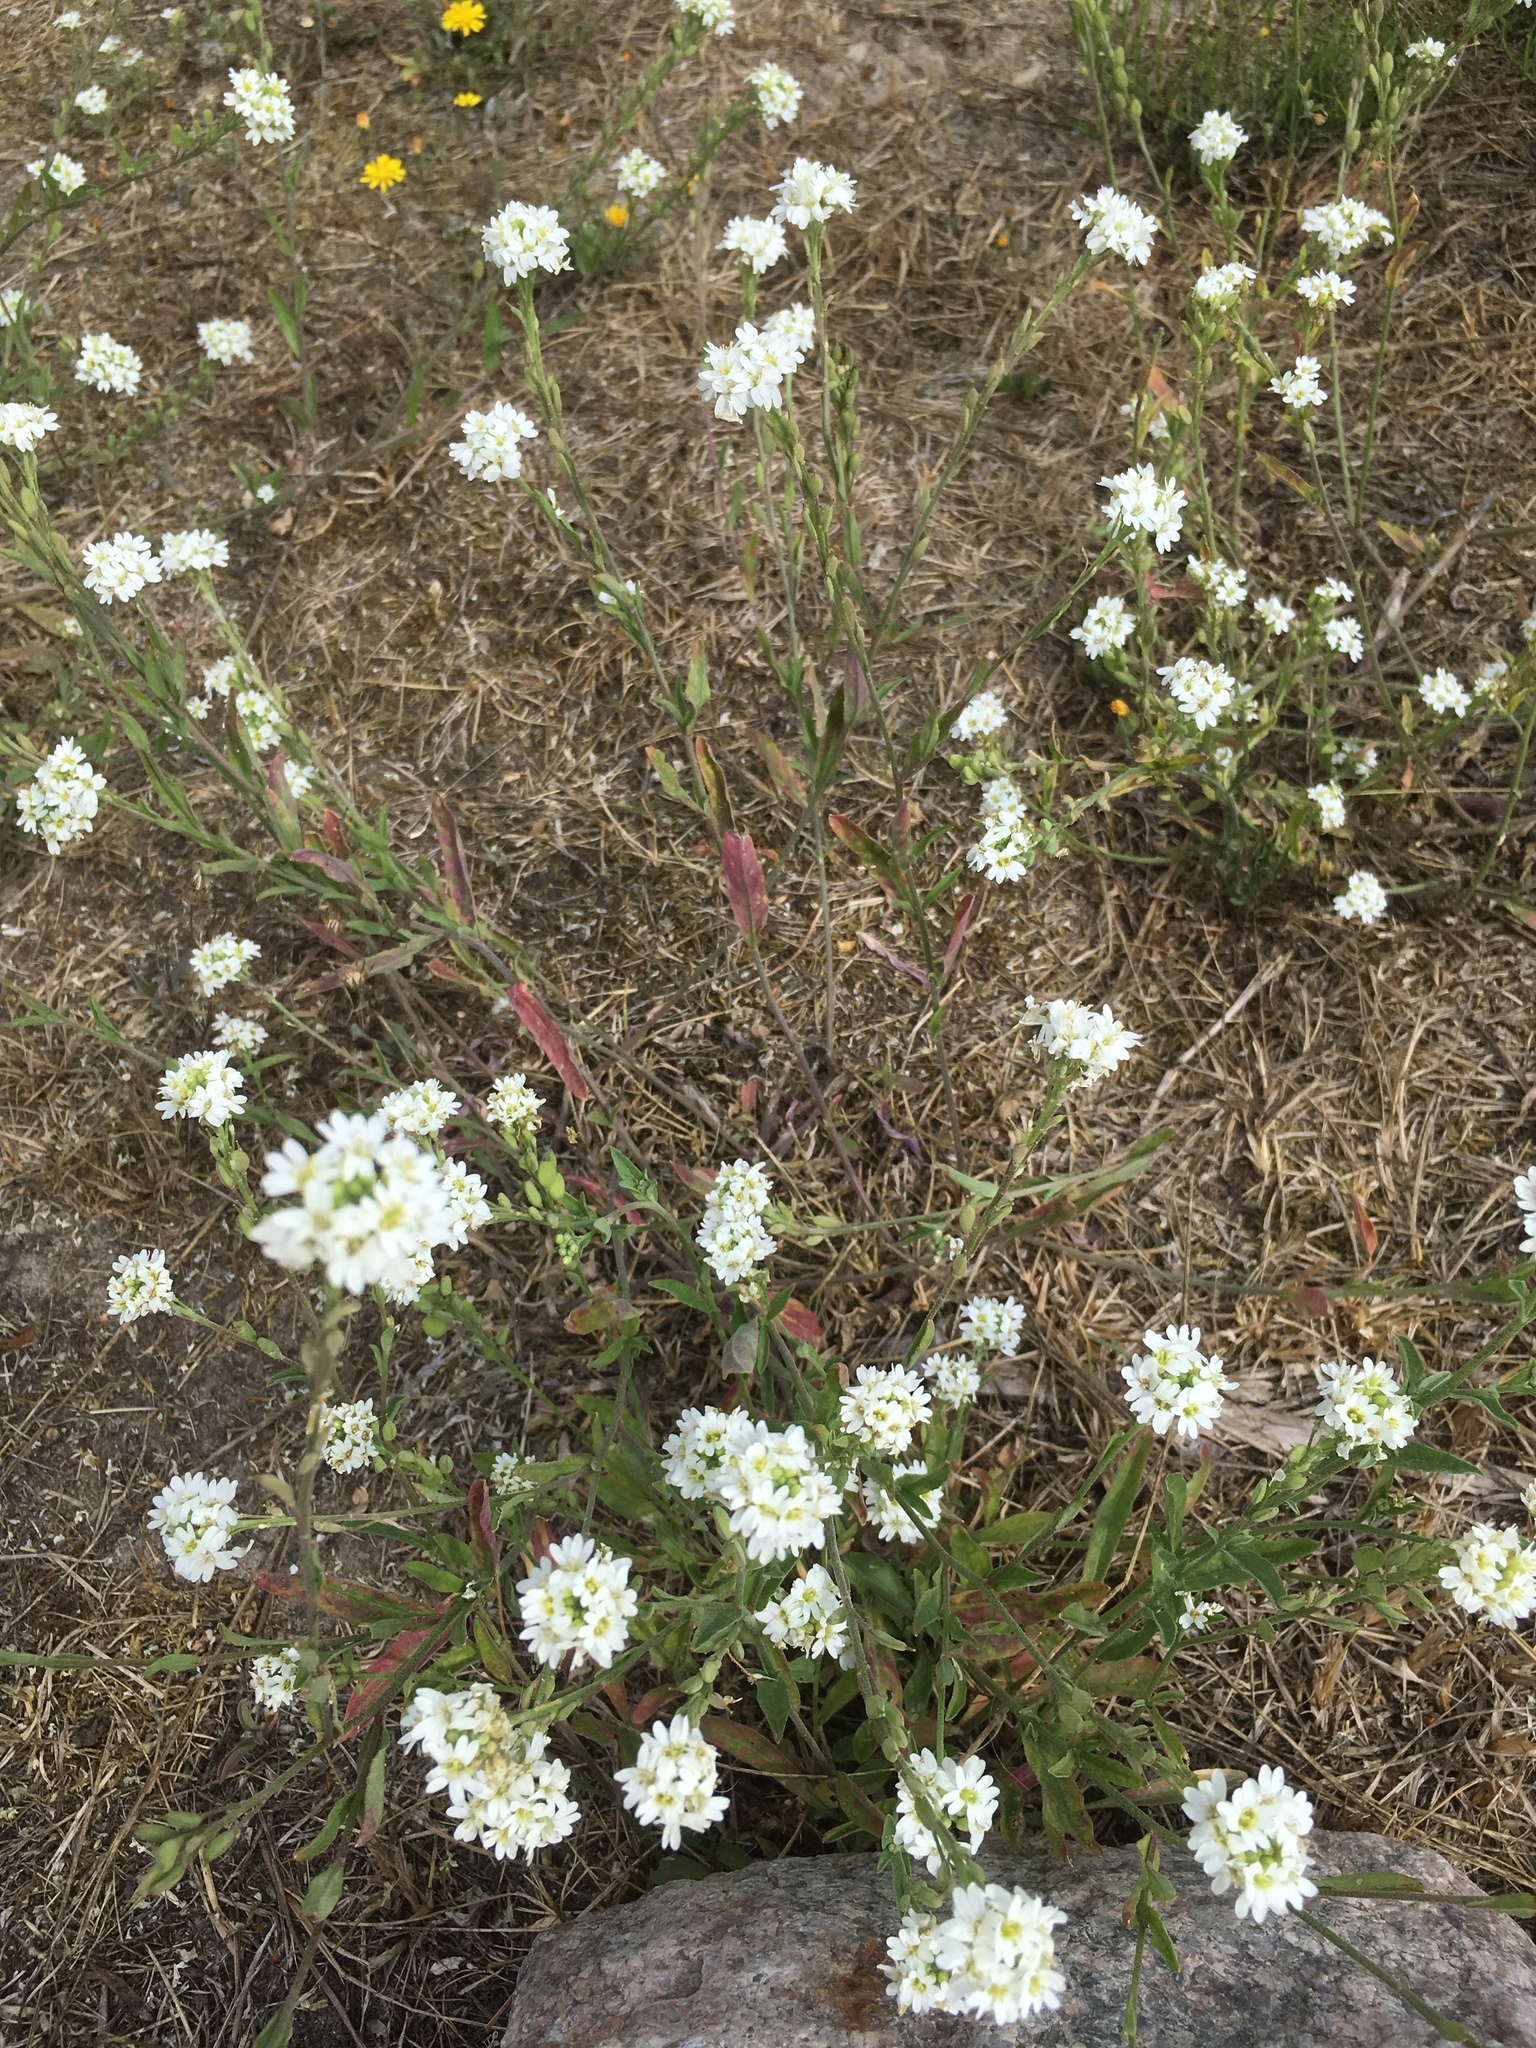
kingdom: Plantae
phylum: Tracheophyta
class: Magnoliopsida
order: Brassicales
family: Brassicaceae
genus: Berteroa
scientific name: Berteroa incana
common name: Hoary alison
